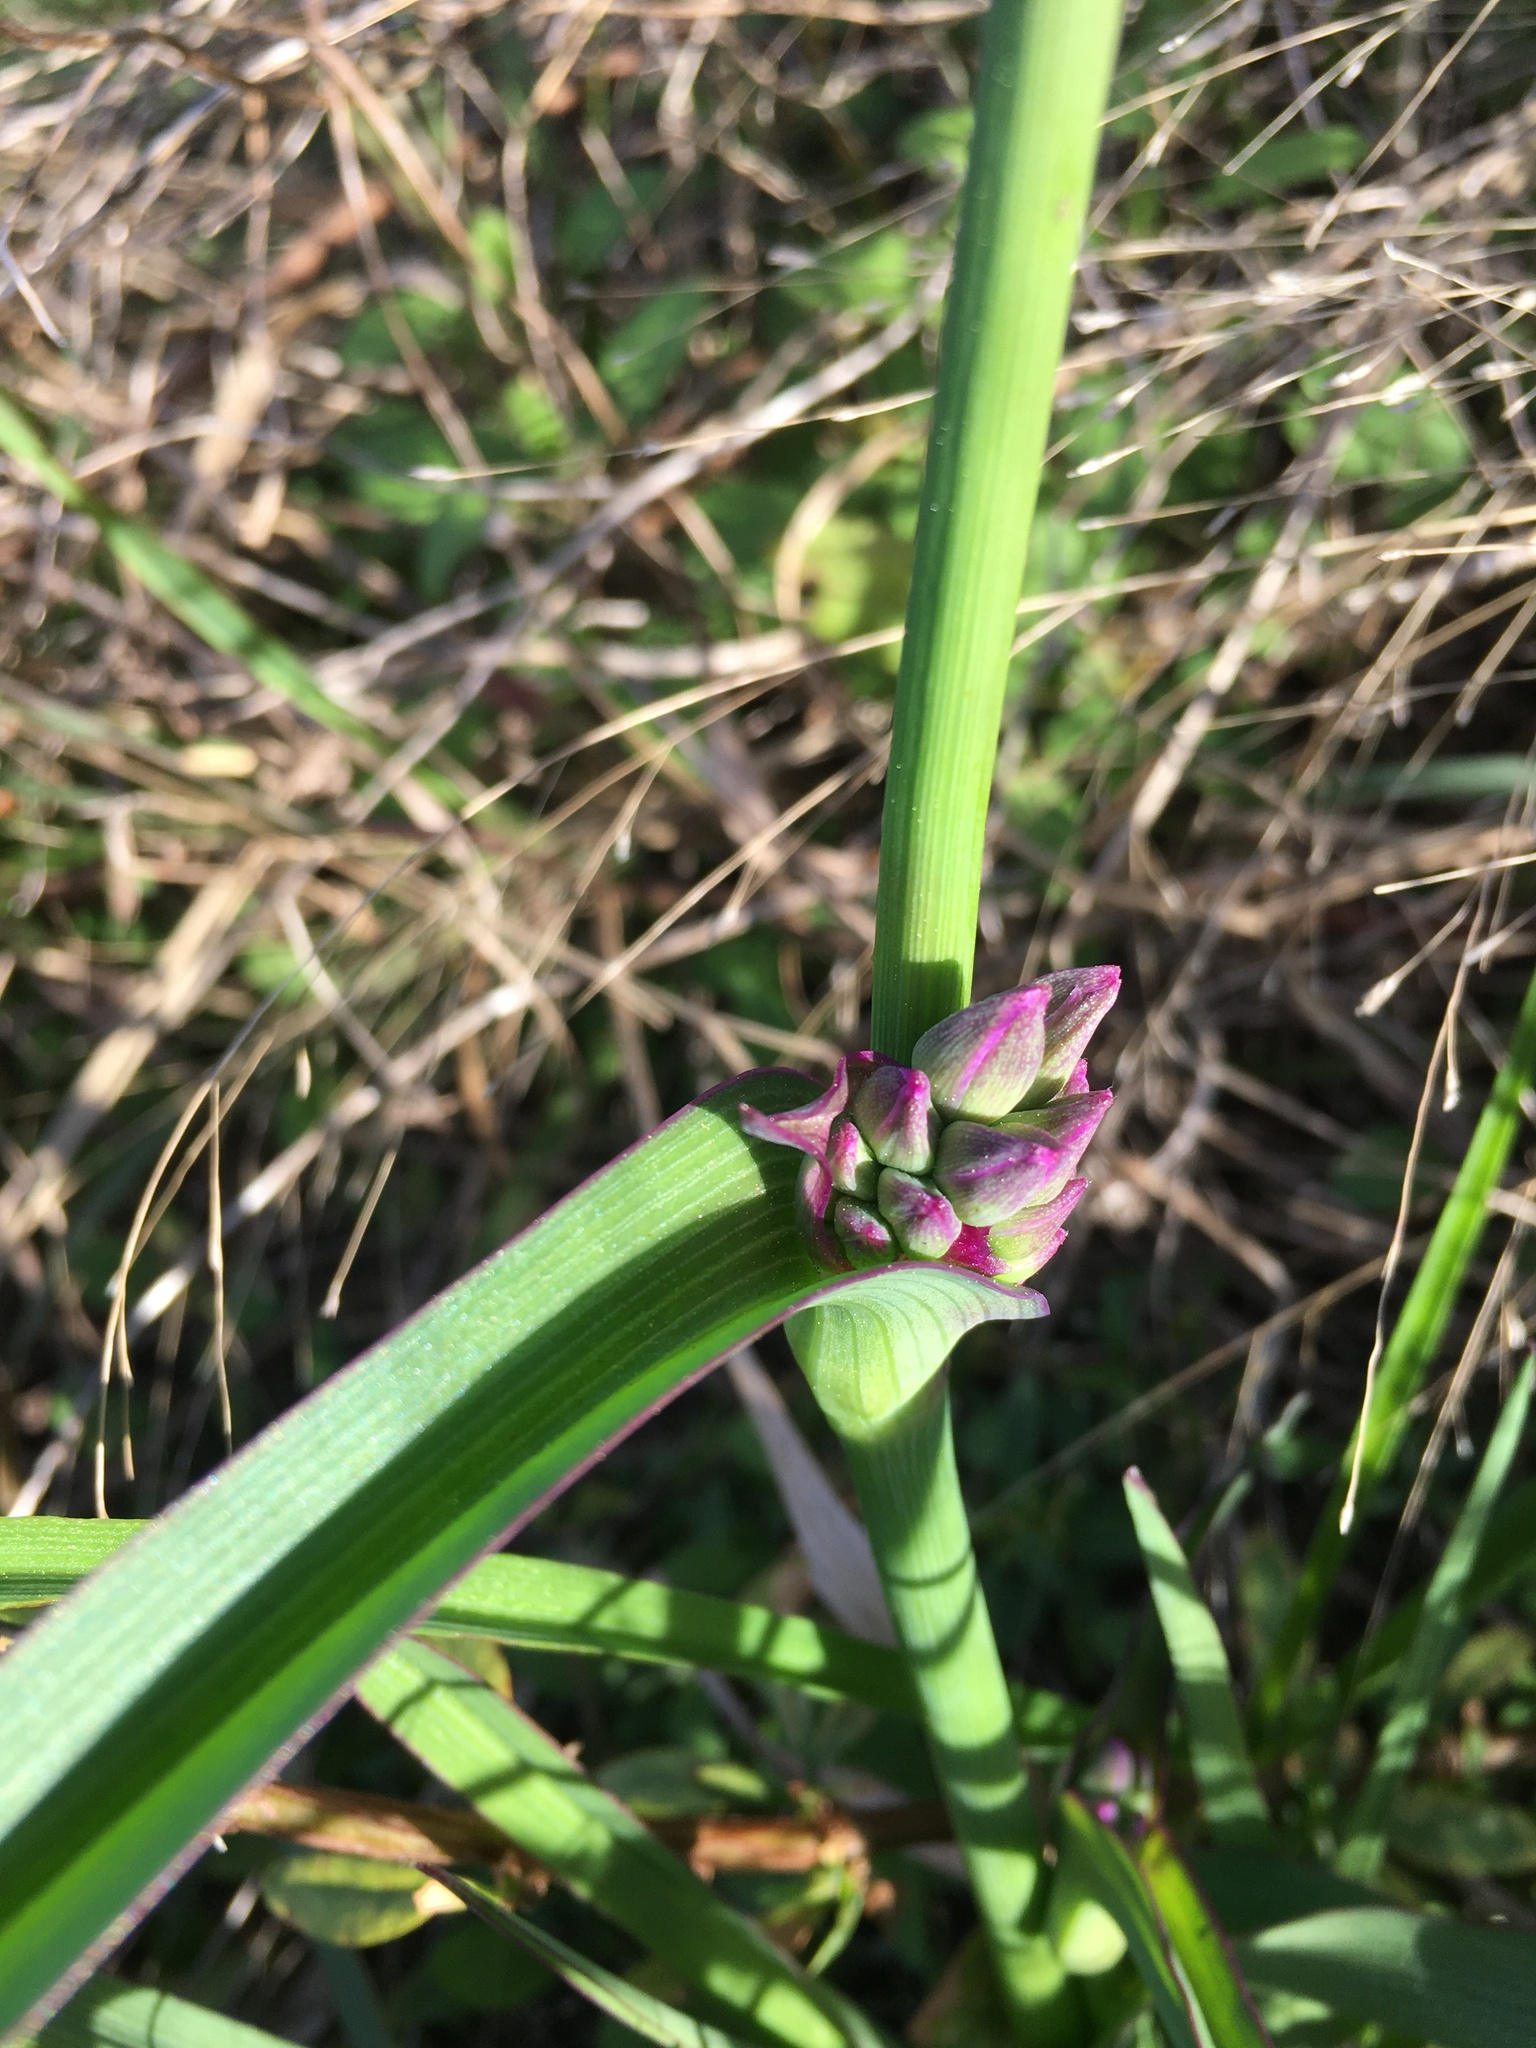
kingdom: Plantae
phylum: Tracheophyta
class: Liliopsida
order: Commelinales
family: Commelinaceae
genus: Tradescantia
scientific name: Tradescantia ohiensis
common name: Ohio spiderwort
